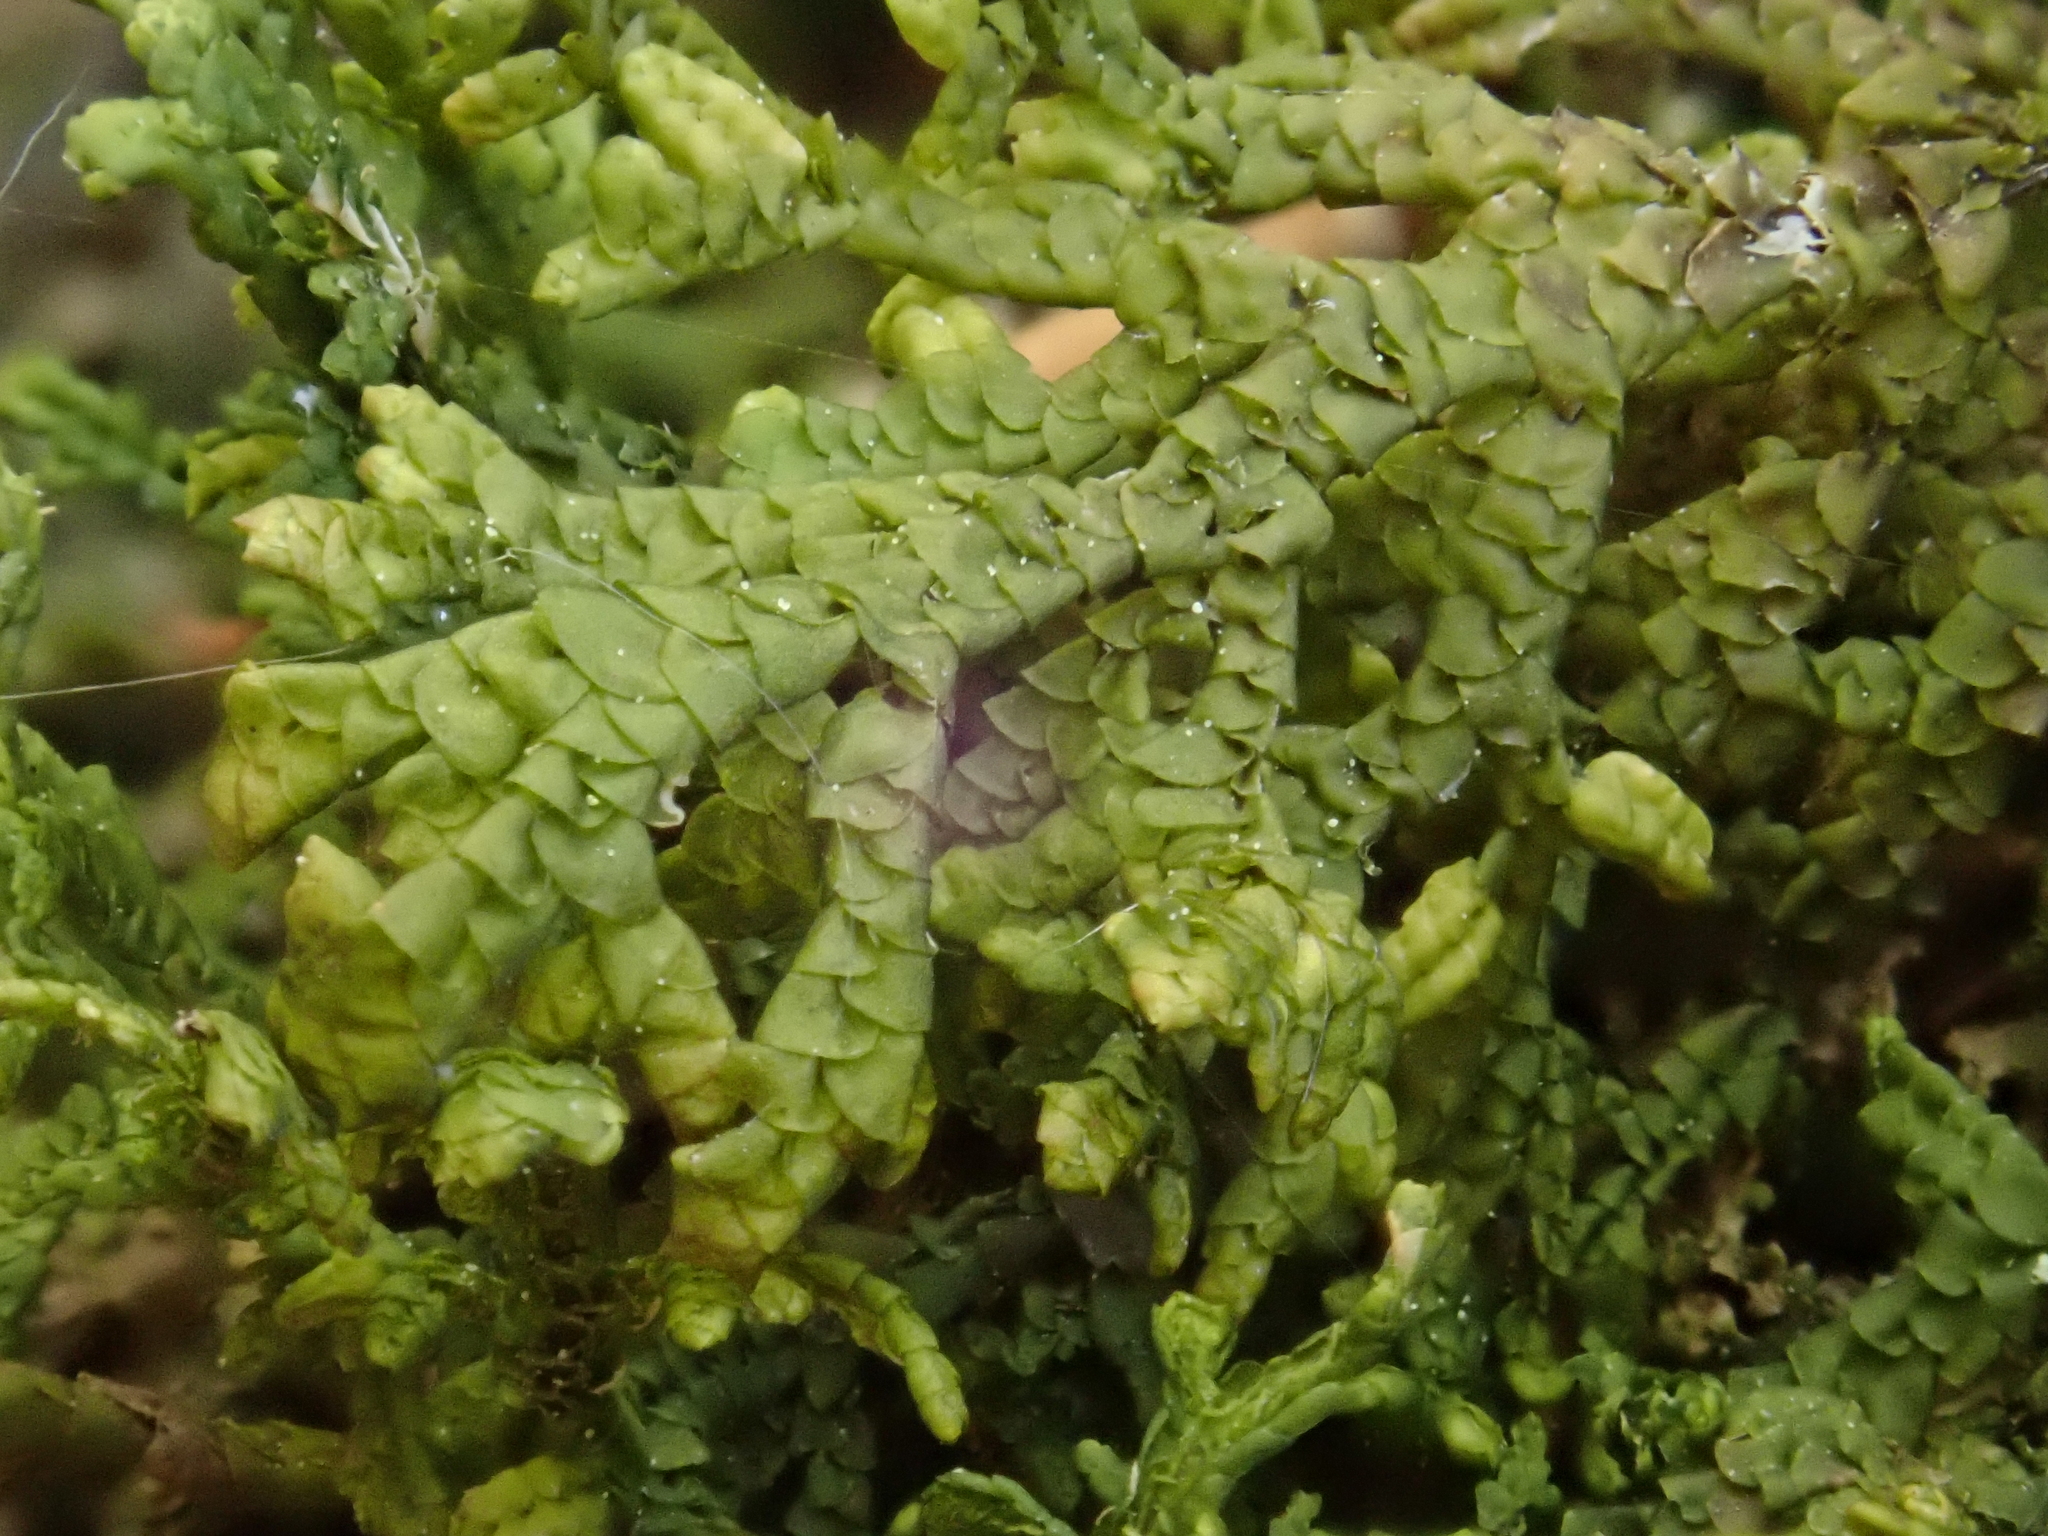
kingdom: Plantae
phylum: Marchantiophyta
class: Jungermanniopsida
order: Porellales
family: Porellaceae
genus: Porella
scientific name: Porella platyphylla
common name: Wall scalewort
